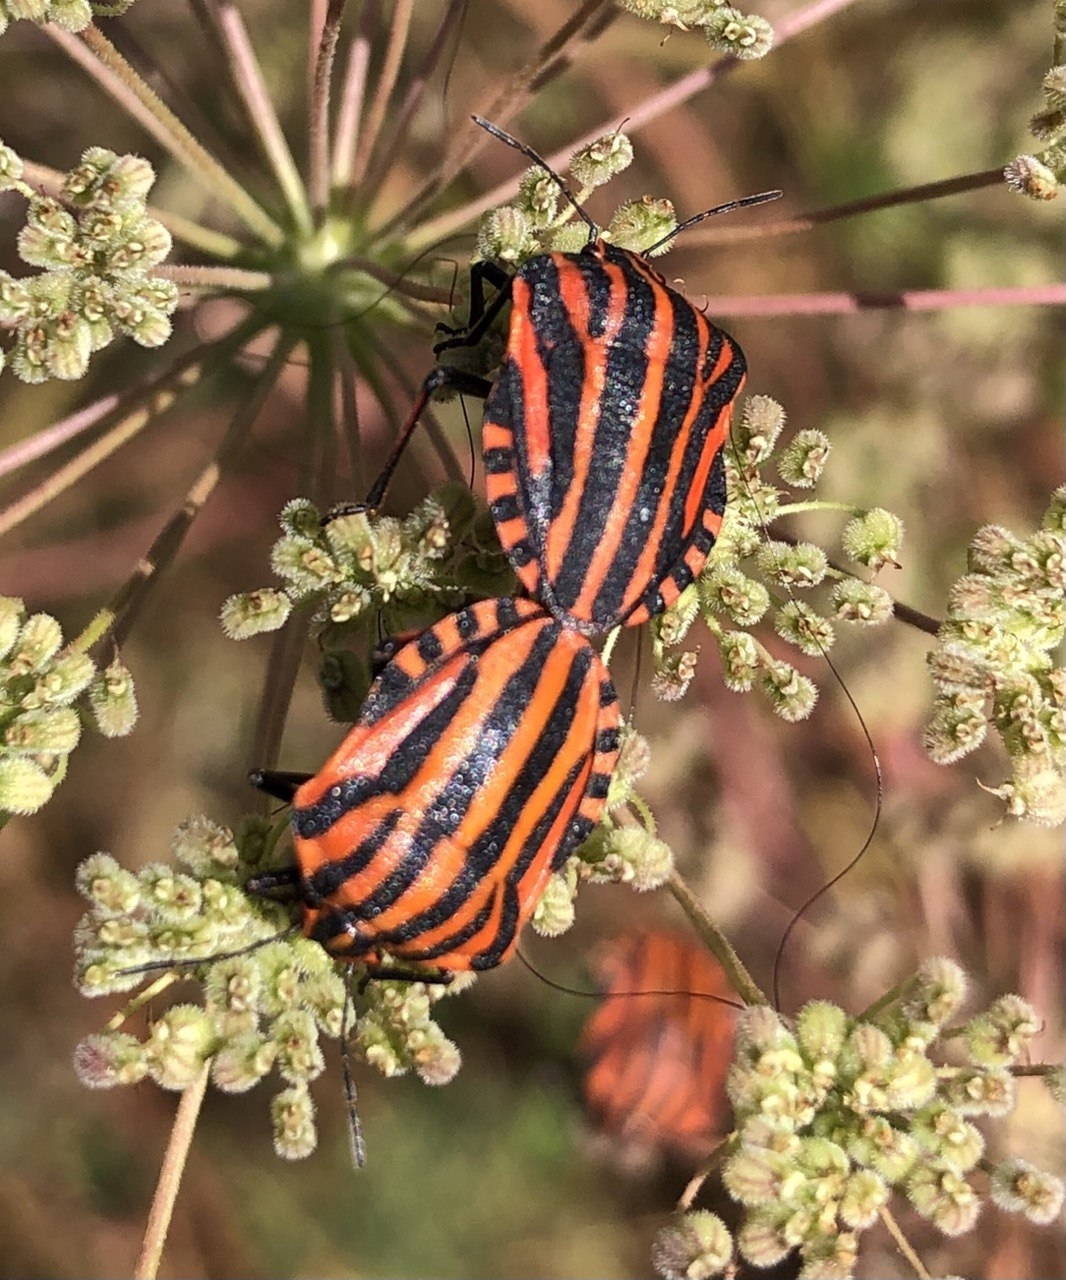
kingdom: Animalia
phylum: Arthropoda
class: Insecta
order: Hemiptera
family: Pentatomidae
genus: Graphosoma
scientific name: Graphosoma italicum
